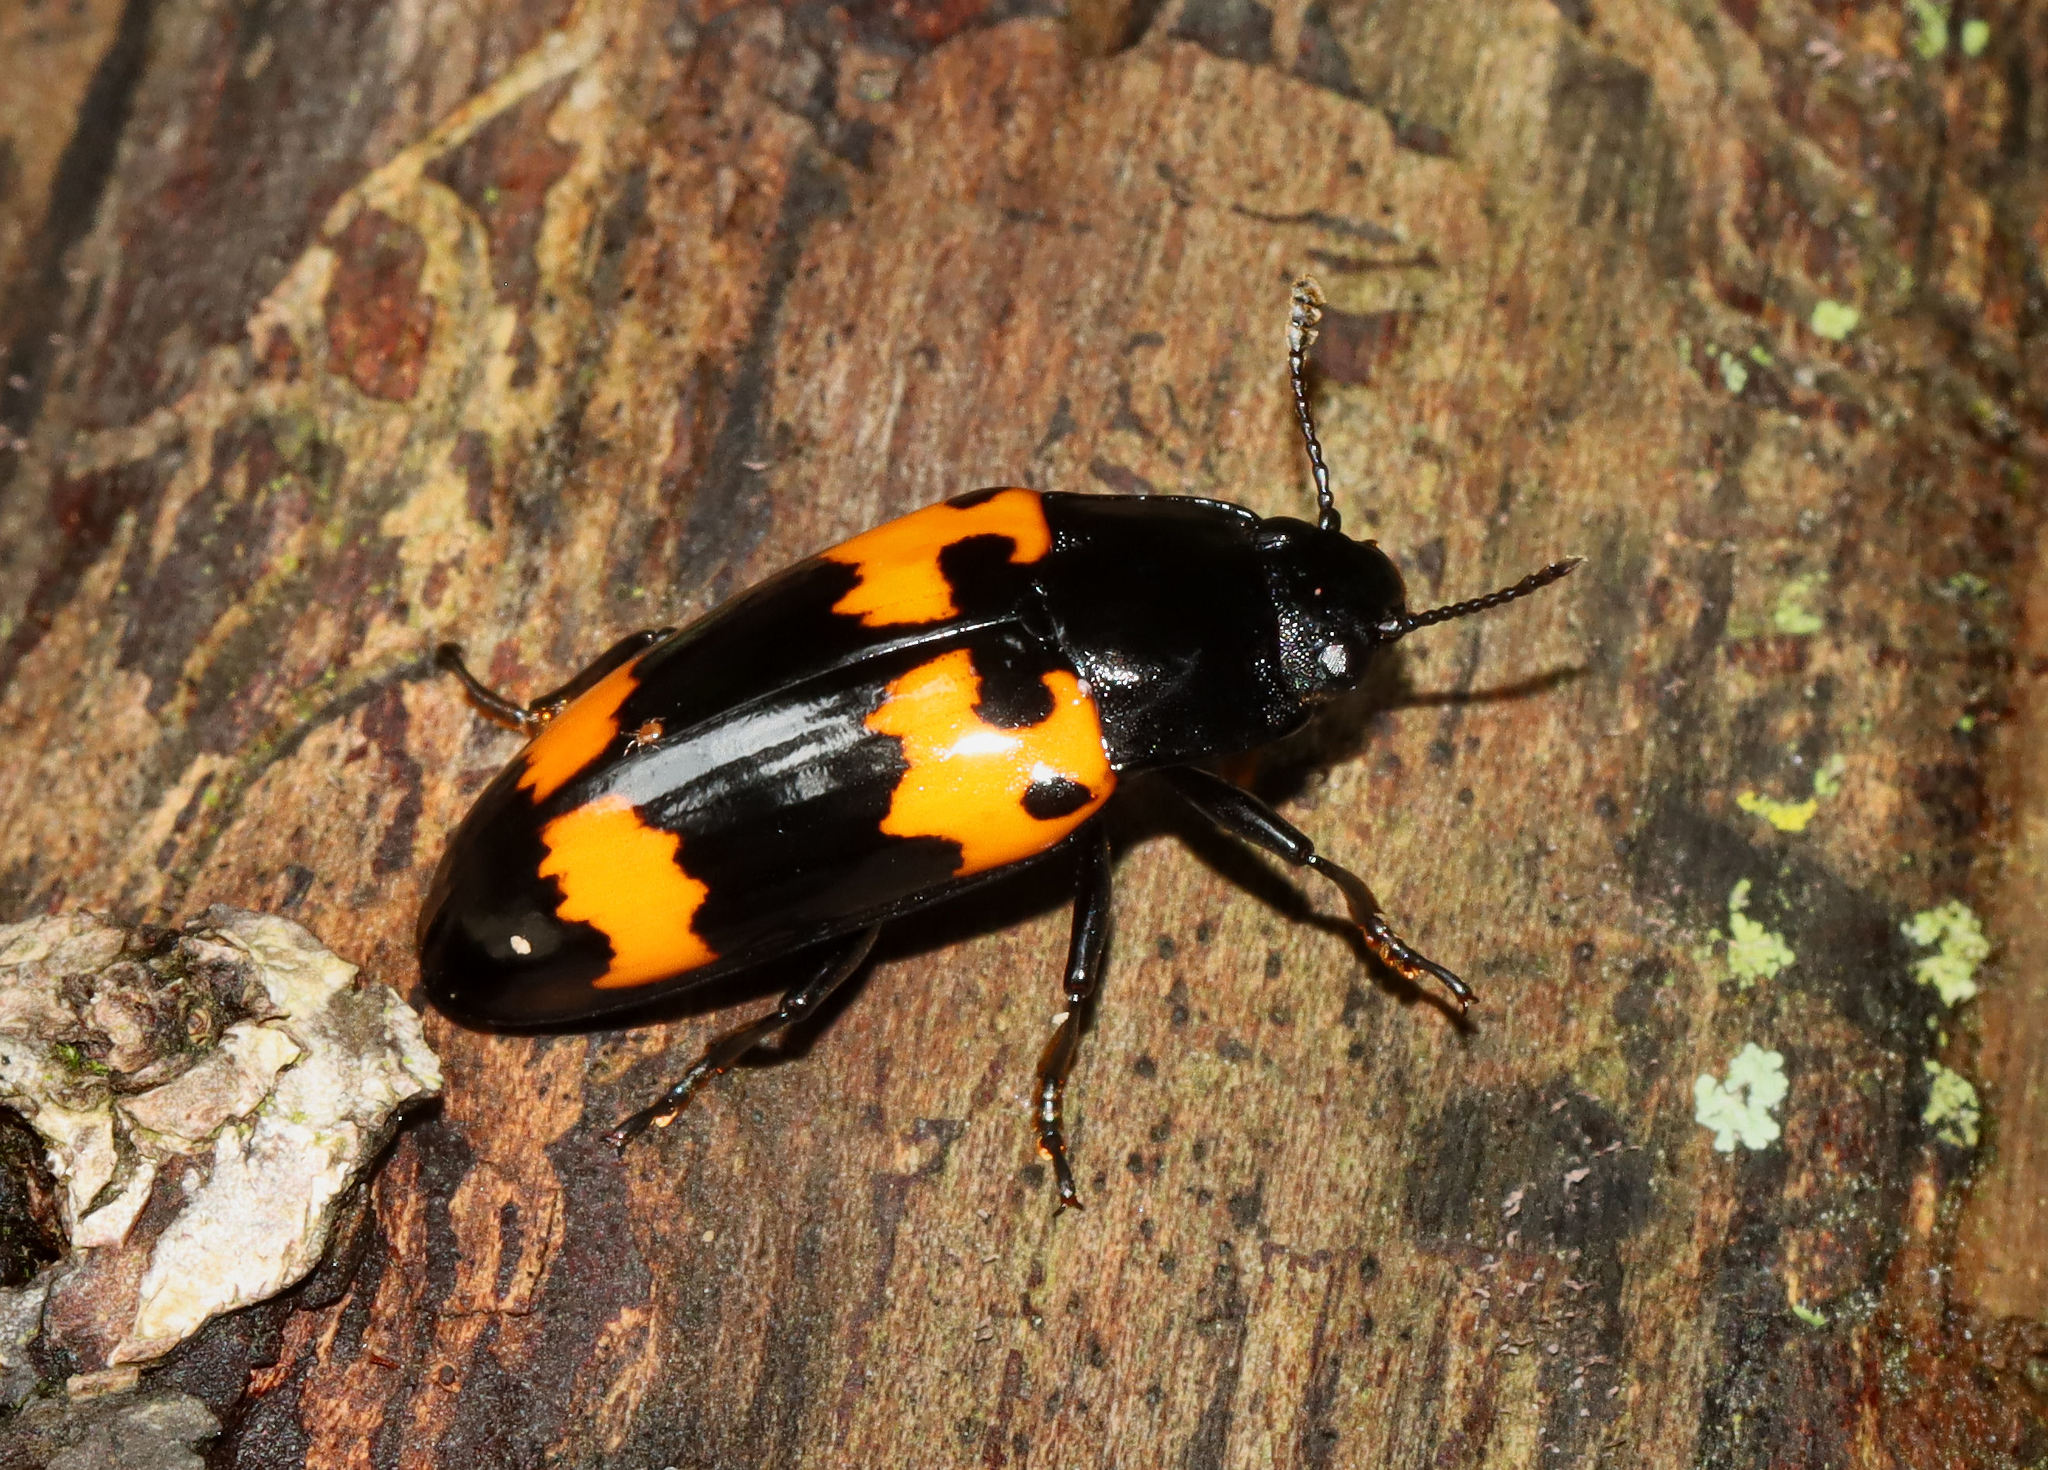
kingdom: Animalia
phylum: Arthropoda
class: Insecta
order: Coleoptera
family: Erotylidae
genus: Megalodacne
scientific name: Megalodacne heros
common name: Pleasing fungus beetle
